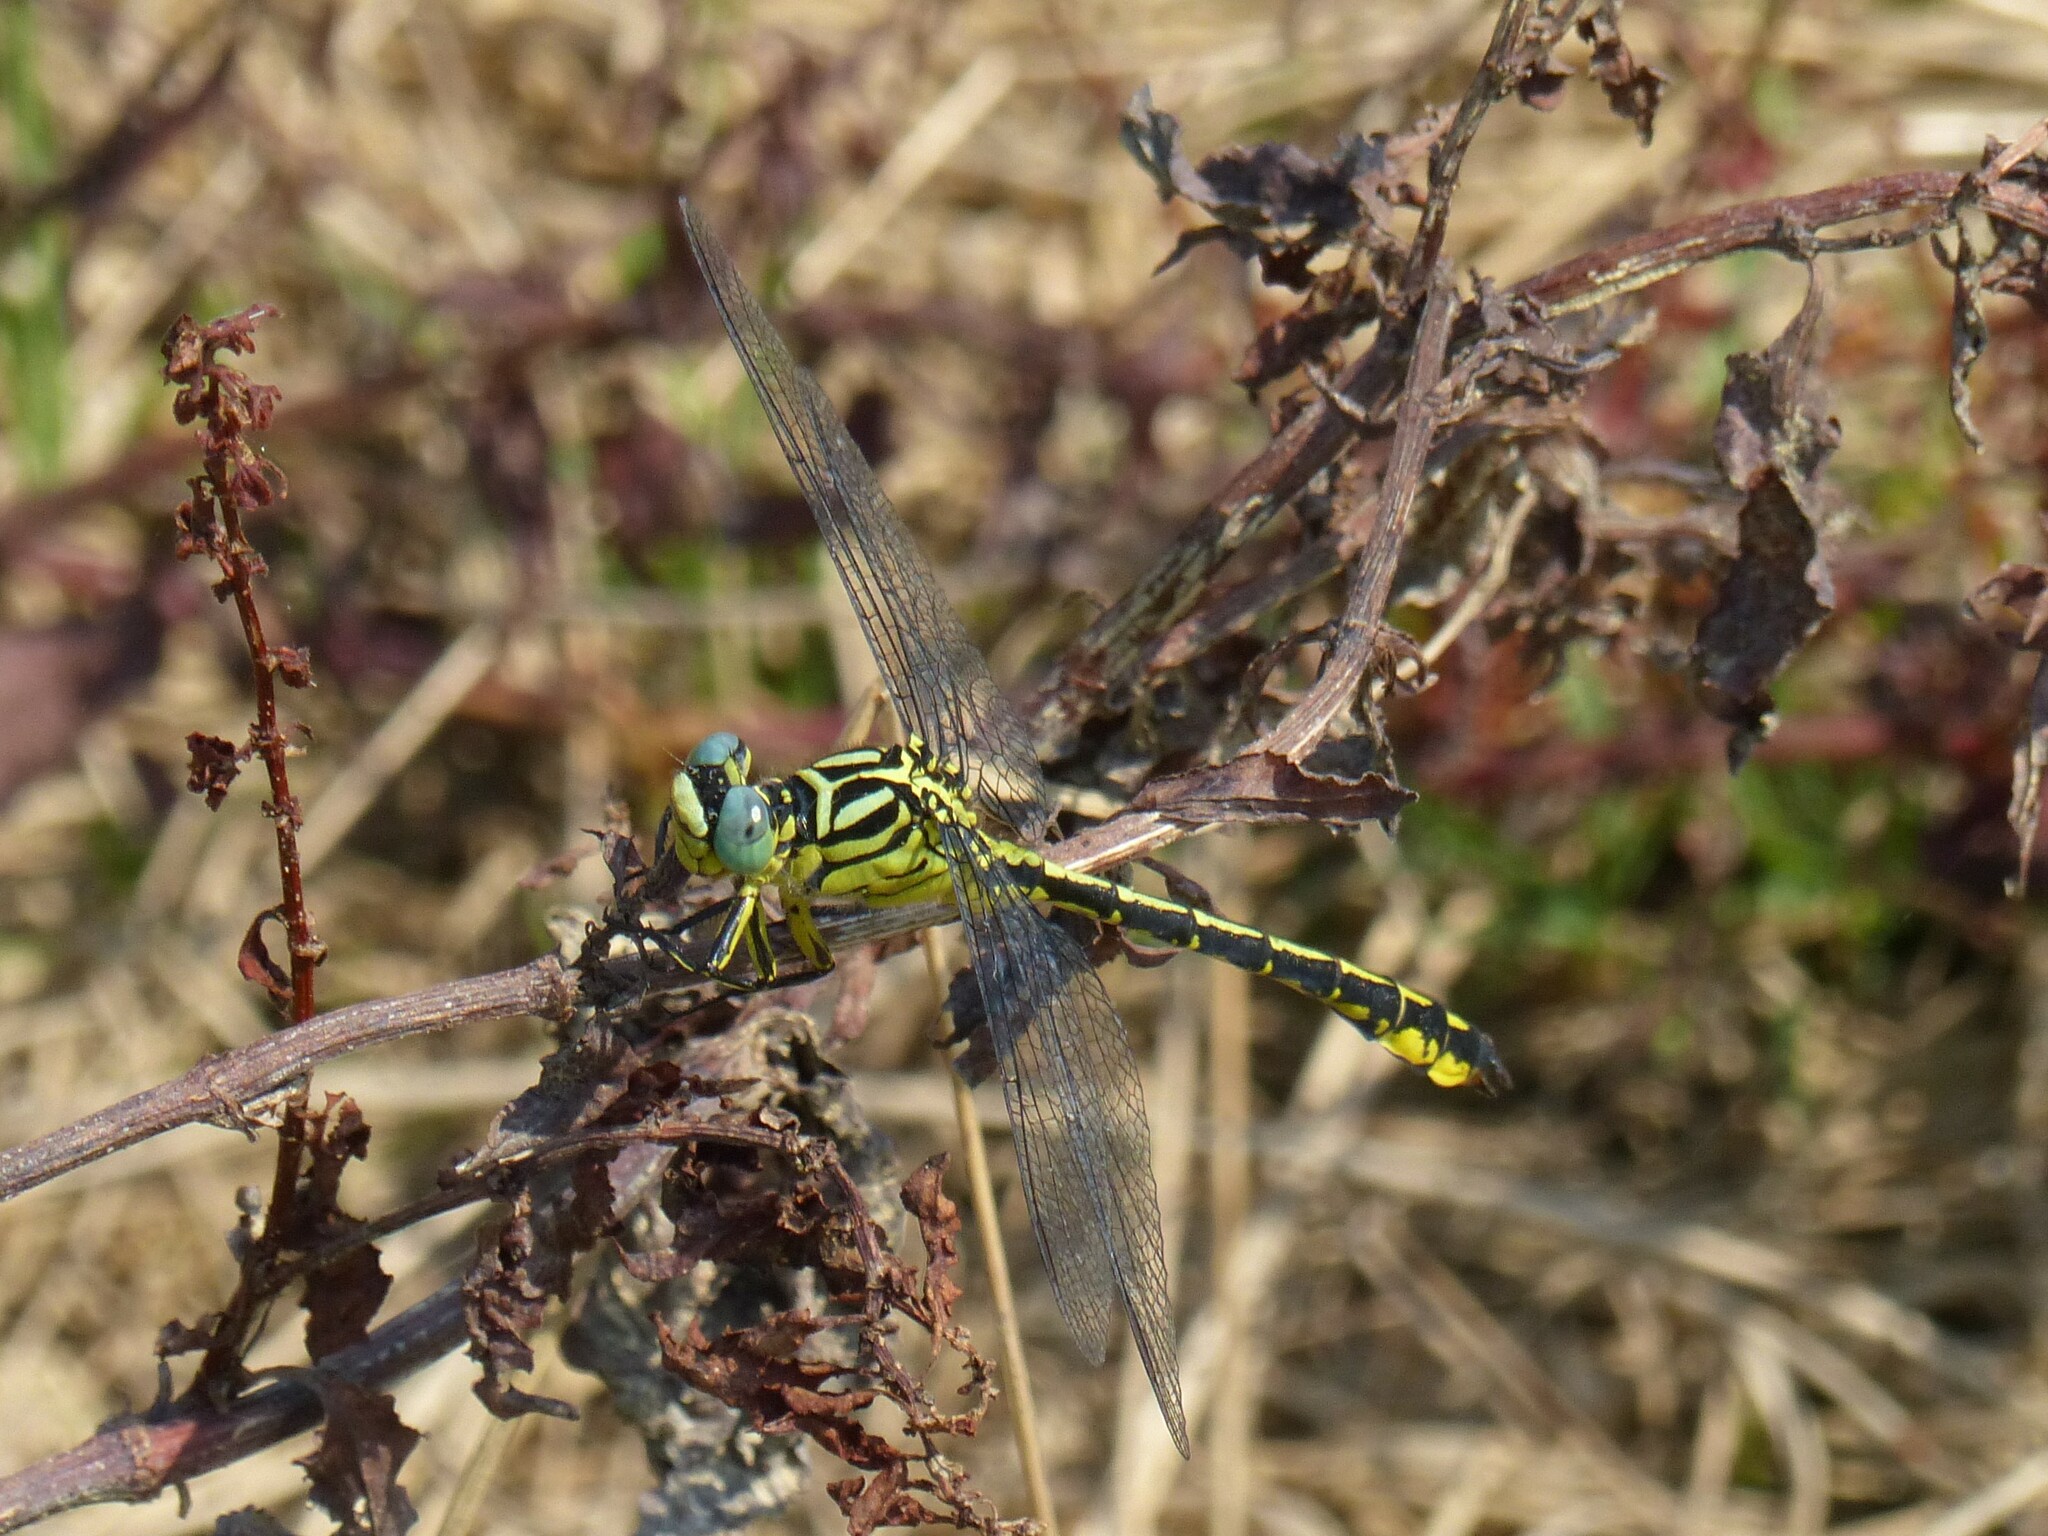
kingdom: Animalia
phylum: Arthropoda
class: Insecta
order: Odonata
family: Gomphidae
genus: Stylurus
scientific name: Stylurus flavipes
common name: River clubtail
